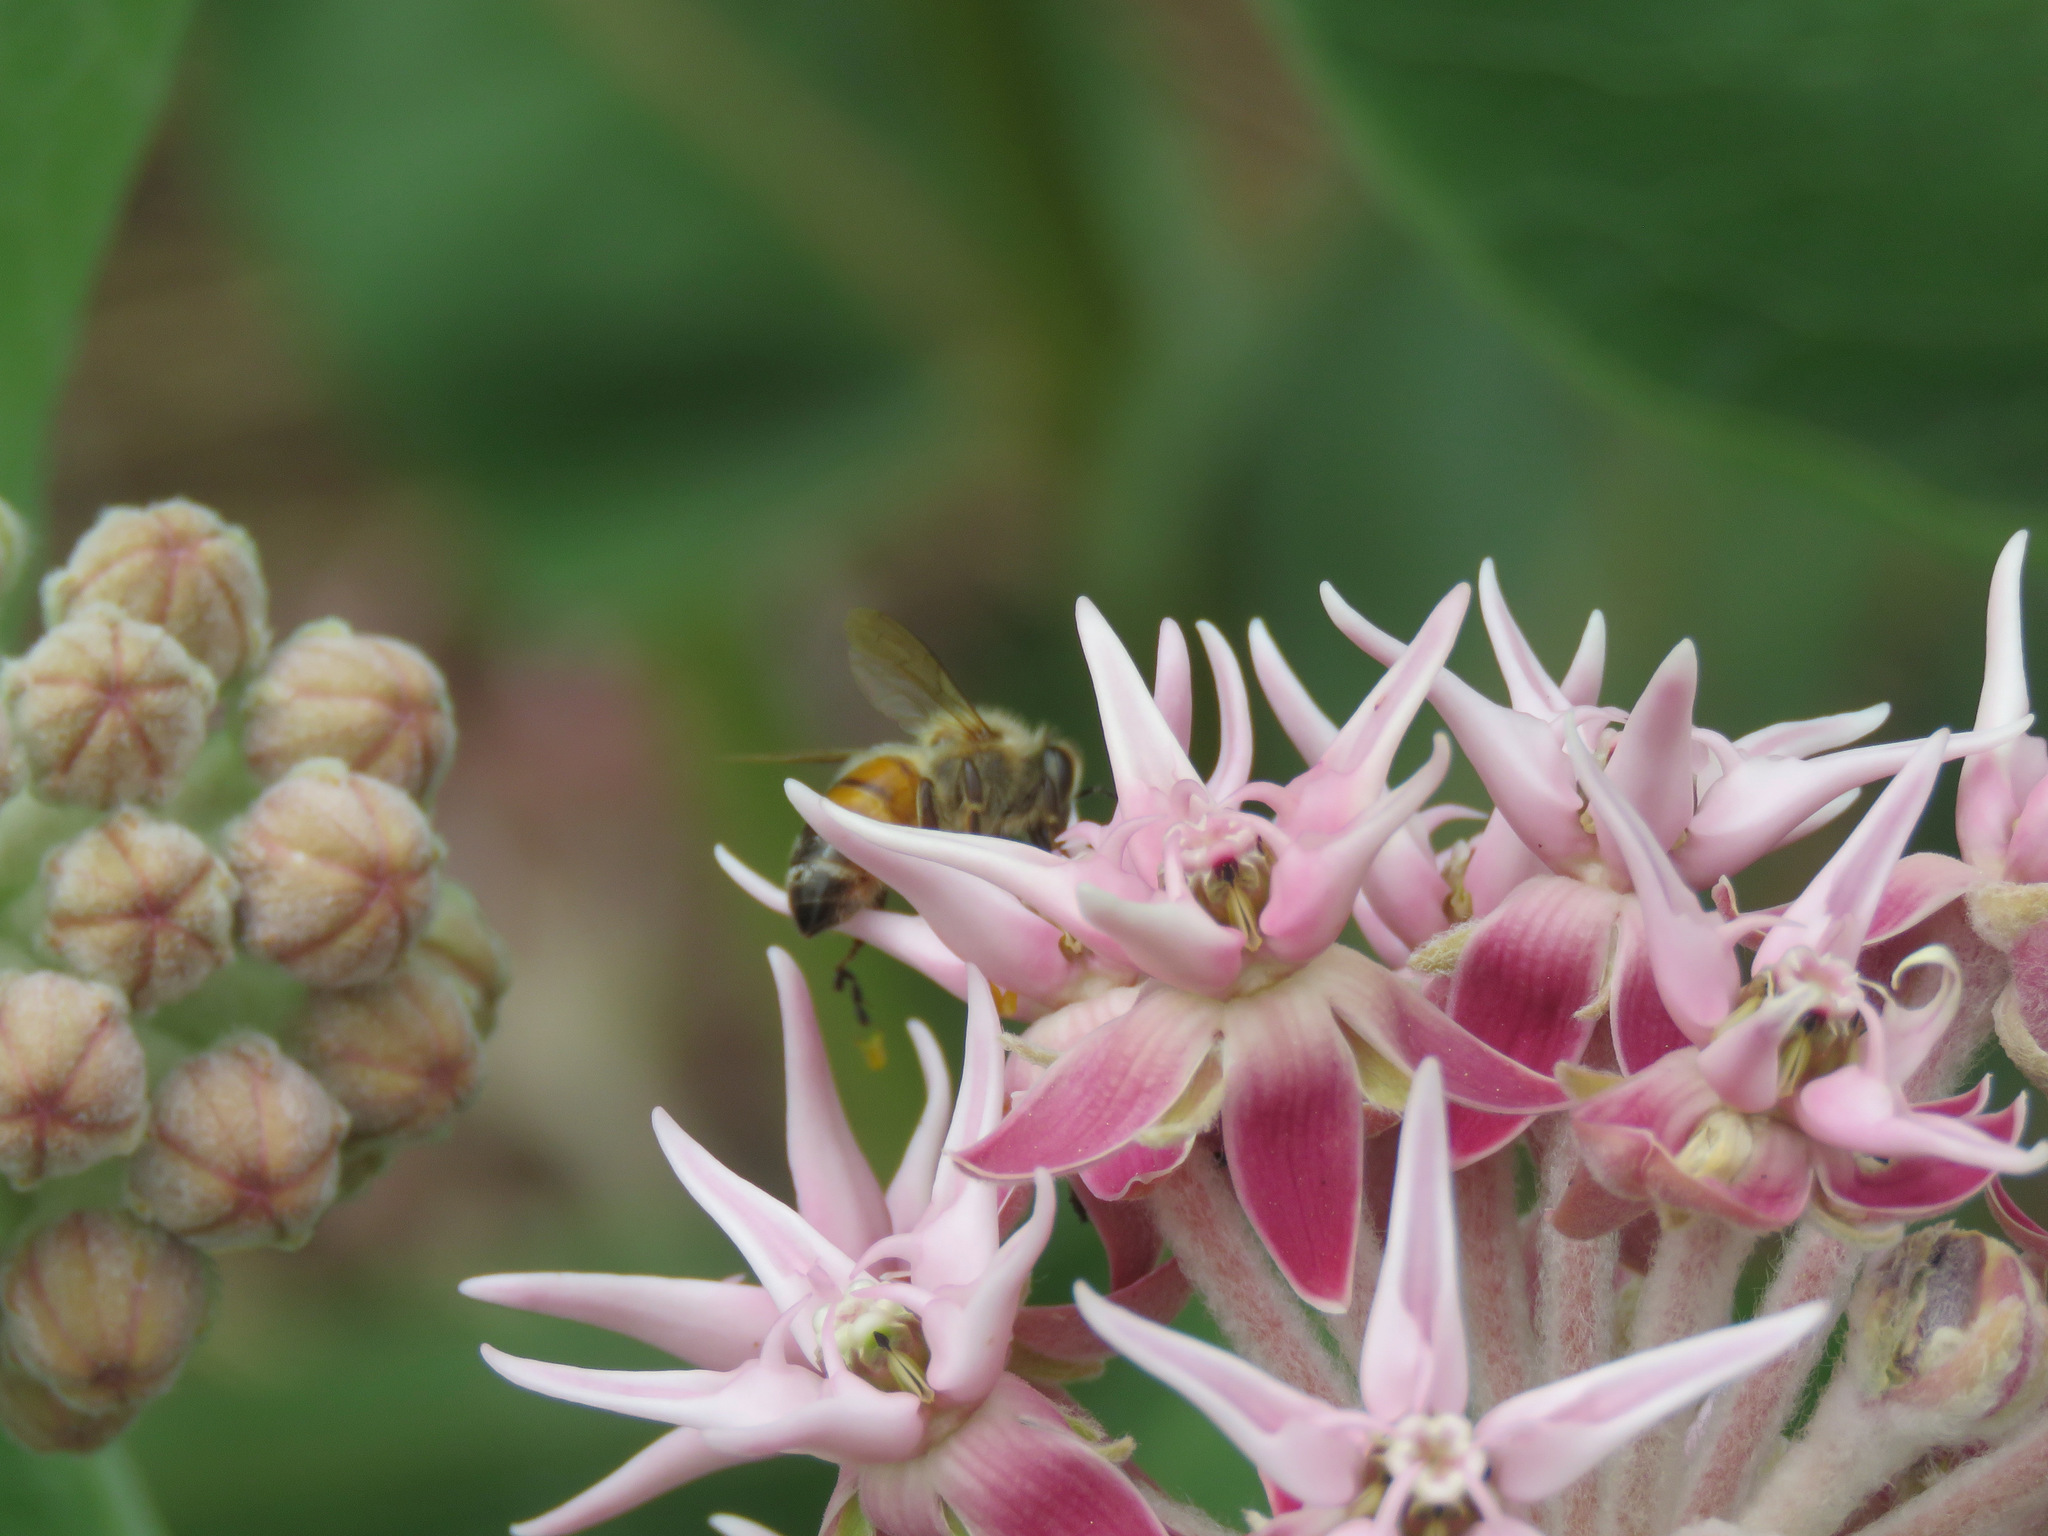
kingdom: Animalia
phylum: Arthropoda
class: Insecta
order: Hymenoptera
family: Apidae
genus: Apis
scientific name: Apis mellifera
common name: Honey bee
